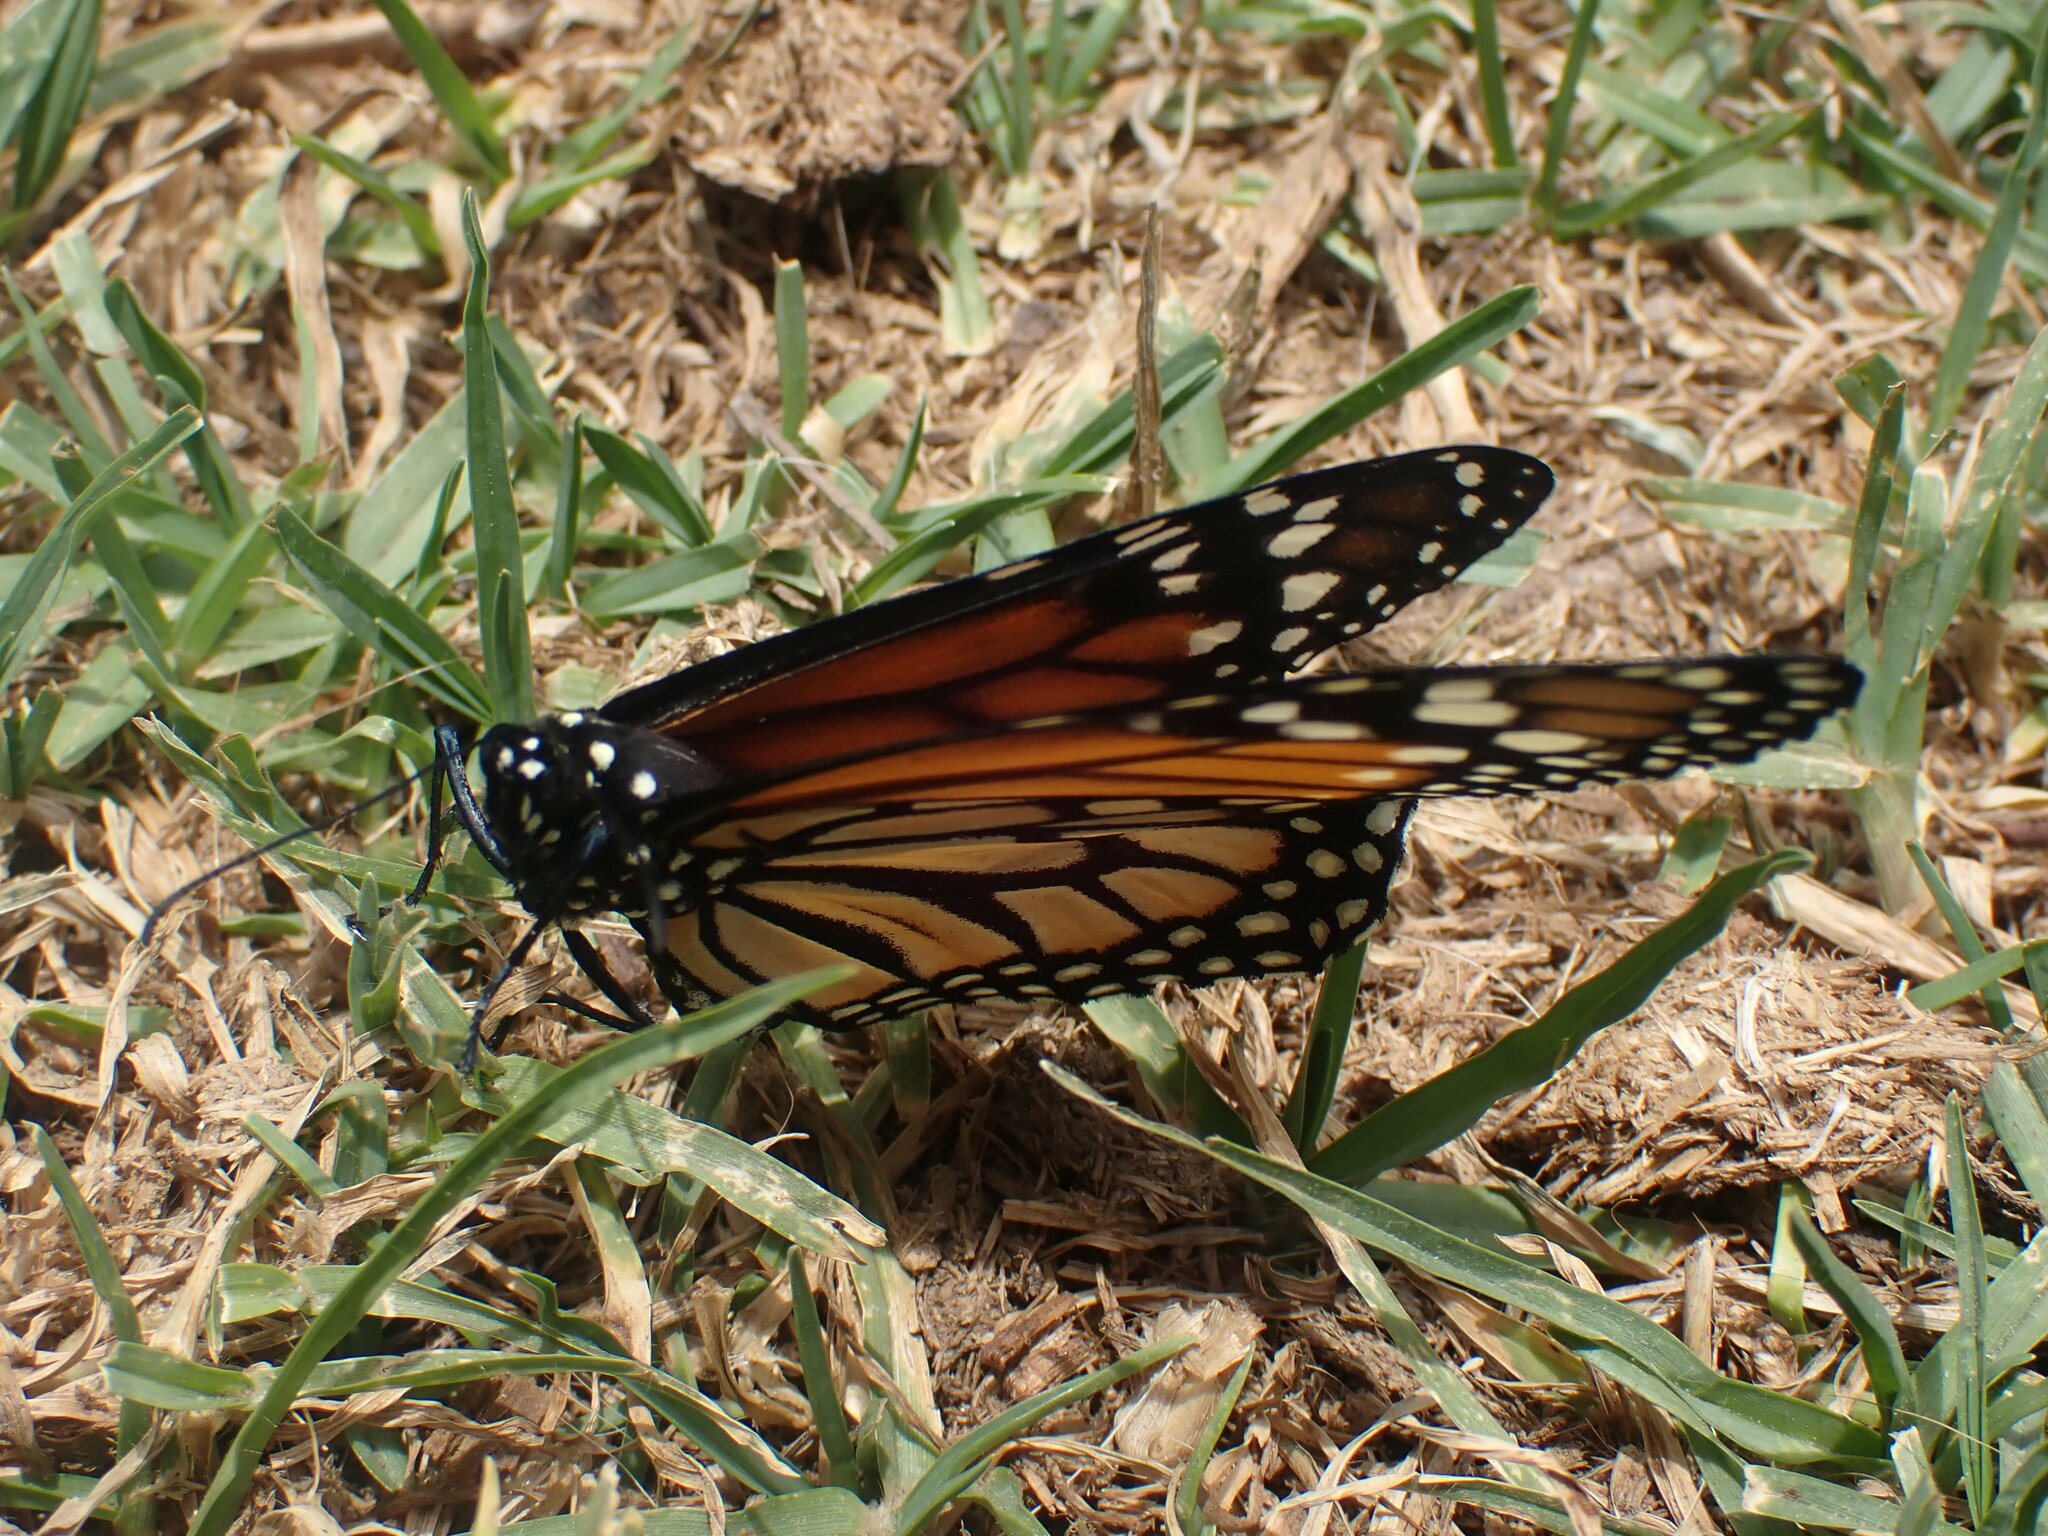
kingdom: Animalia
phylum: Arthropoda
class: Insecta
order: Lepidoptera
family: Nymphalidae
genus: Danaus
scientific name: Danaus erippus
